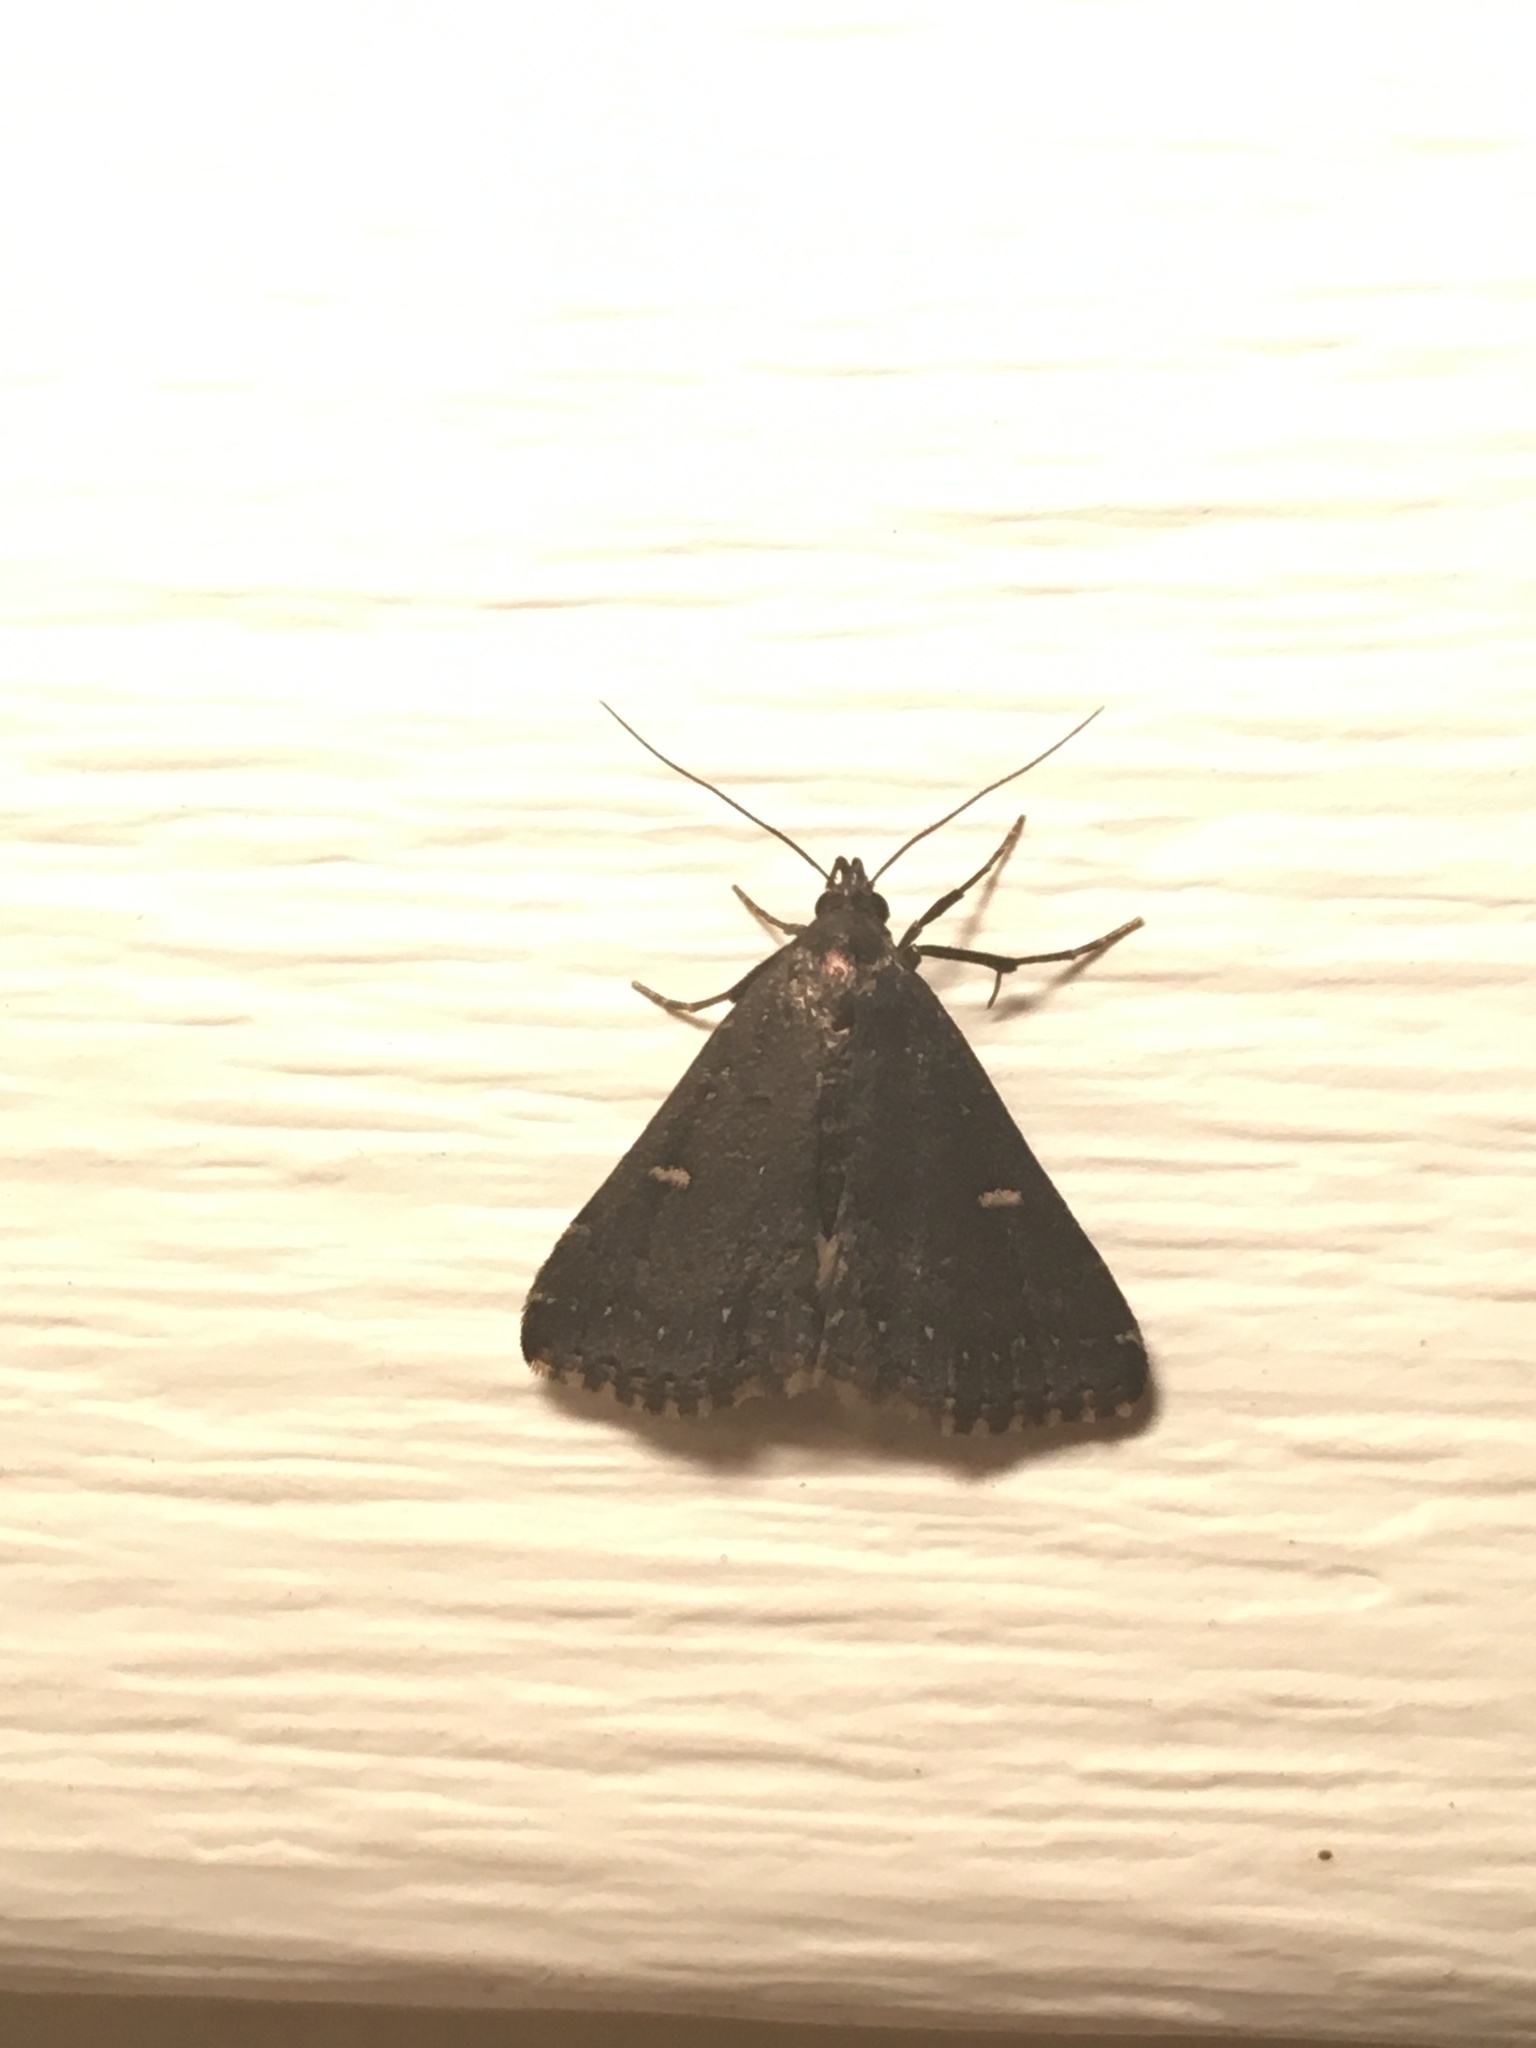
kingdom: Animalia
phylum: Arthropoda
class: Insecta
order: Lepidoptera
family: Erebidae
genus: Tetanolita
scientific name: Tetanolita mynesalis
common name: Smoky tetanolita moth
